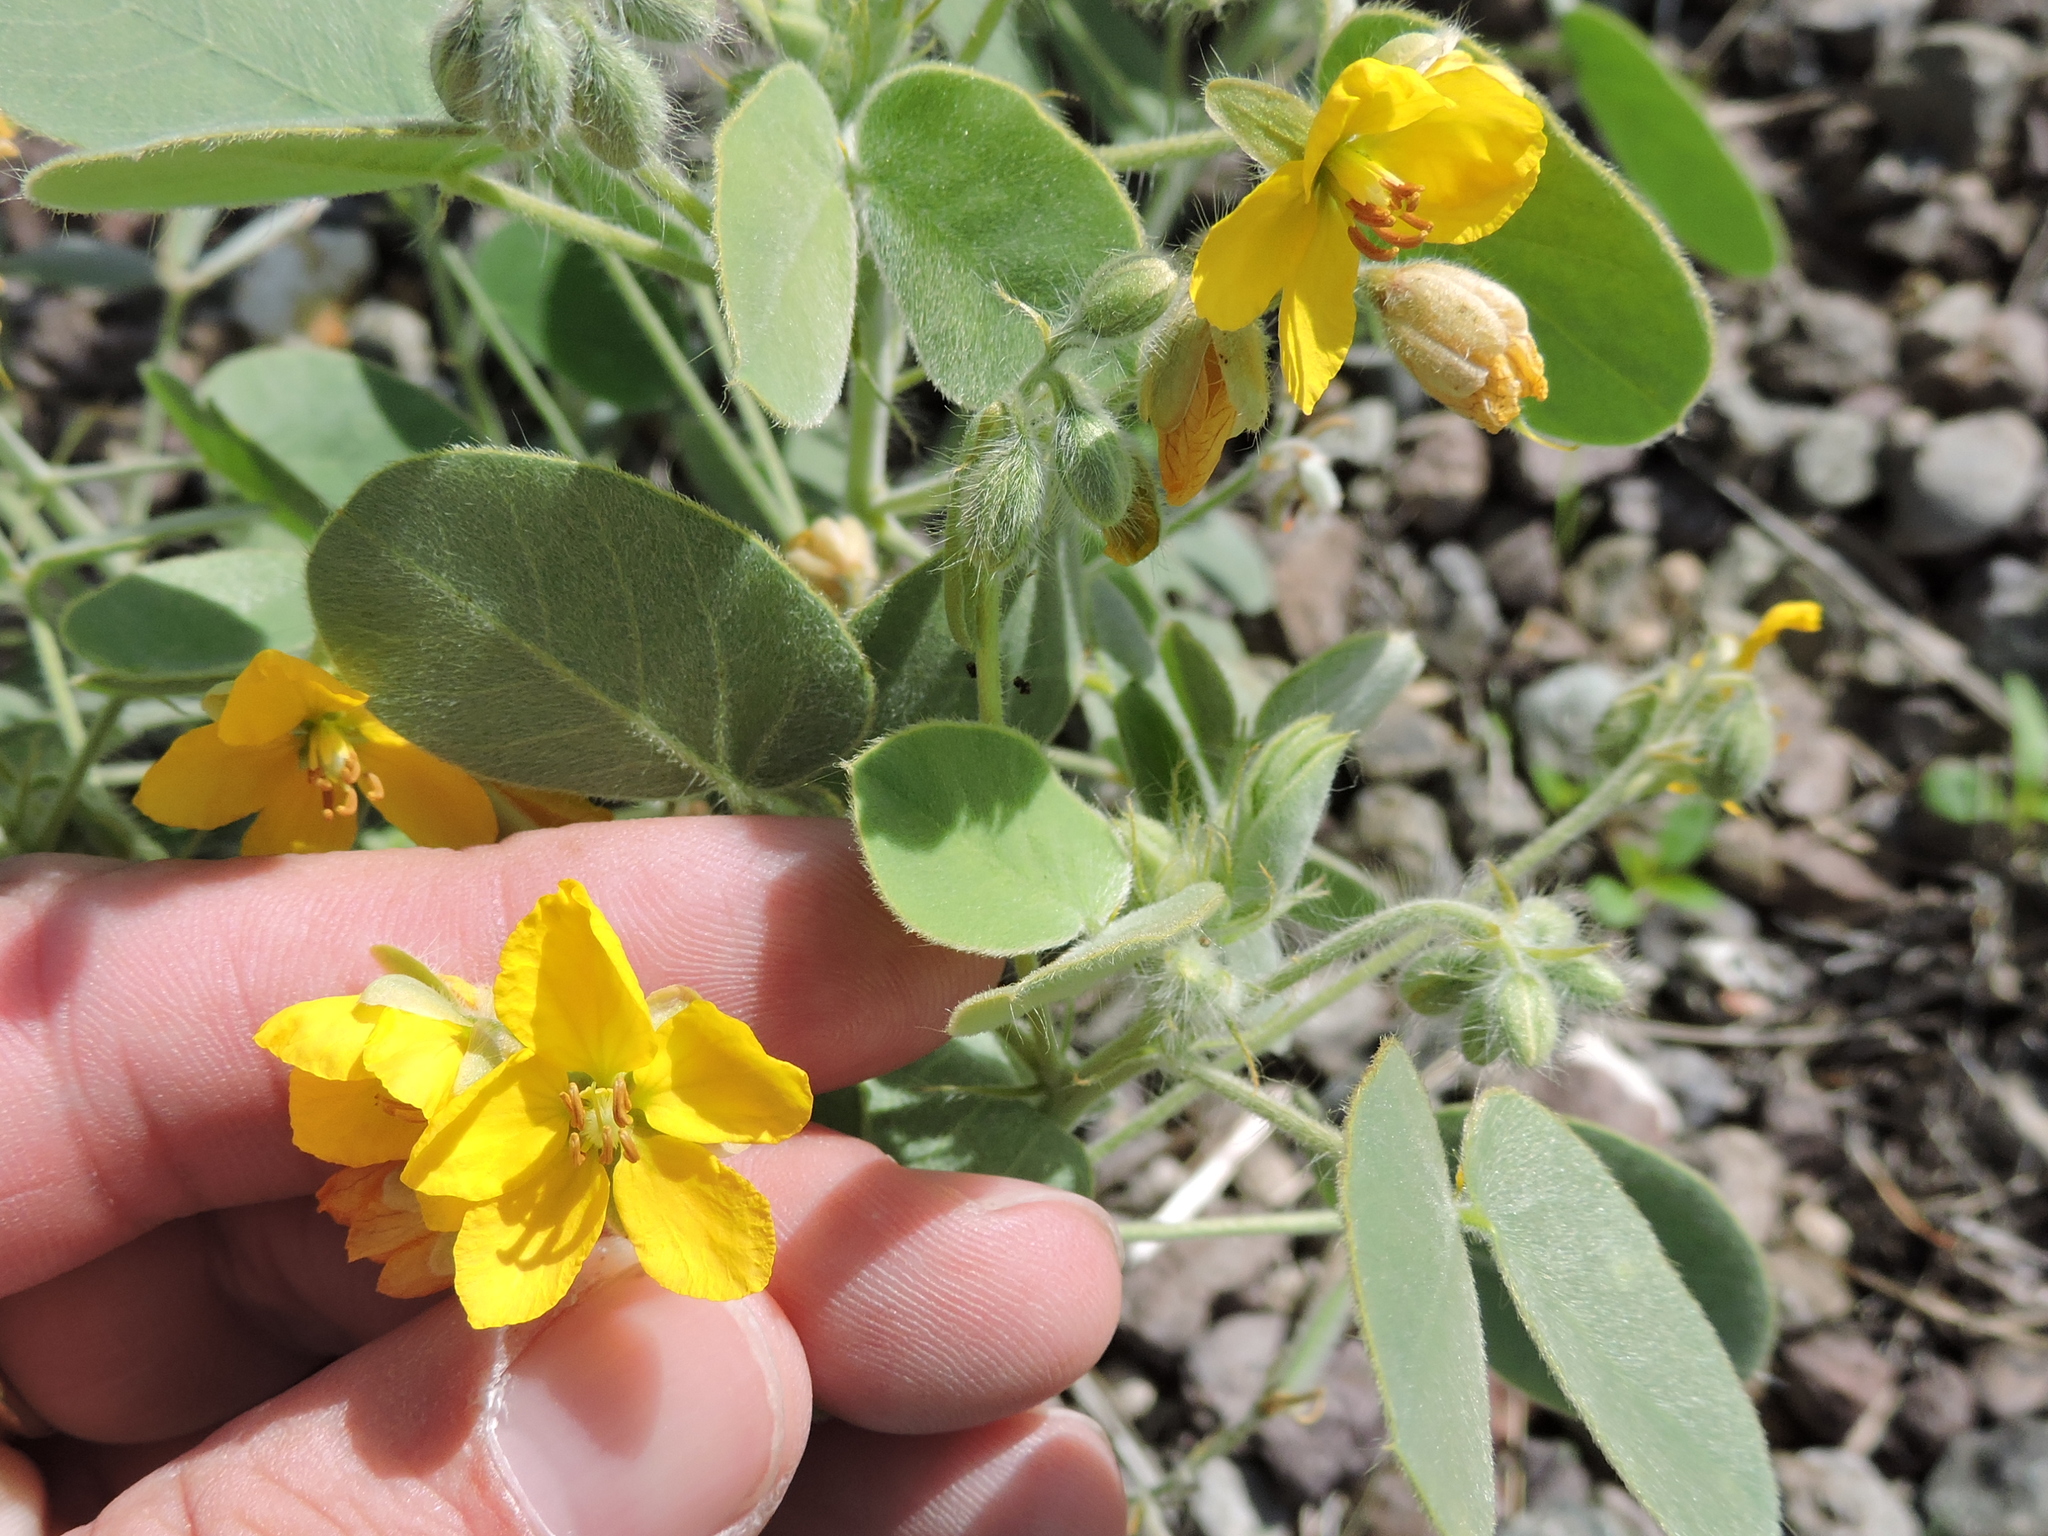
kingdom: Plantae
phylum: Tracheophyta
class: Magnoliopsida
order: Fabales
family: Fabaceae
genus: Senna
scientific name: Senna bauhinioides
